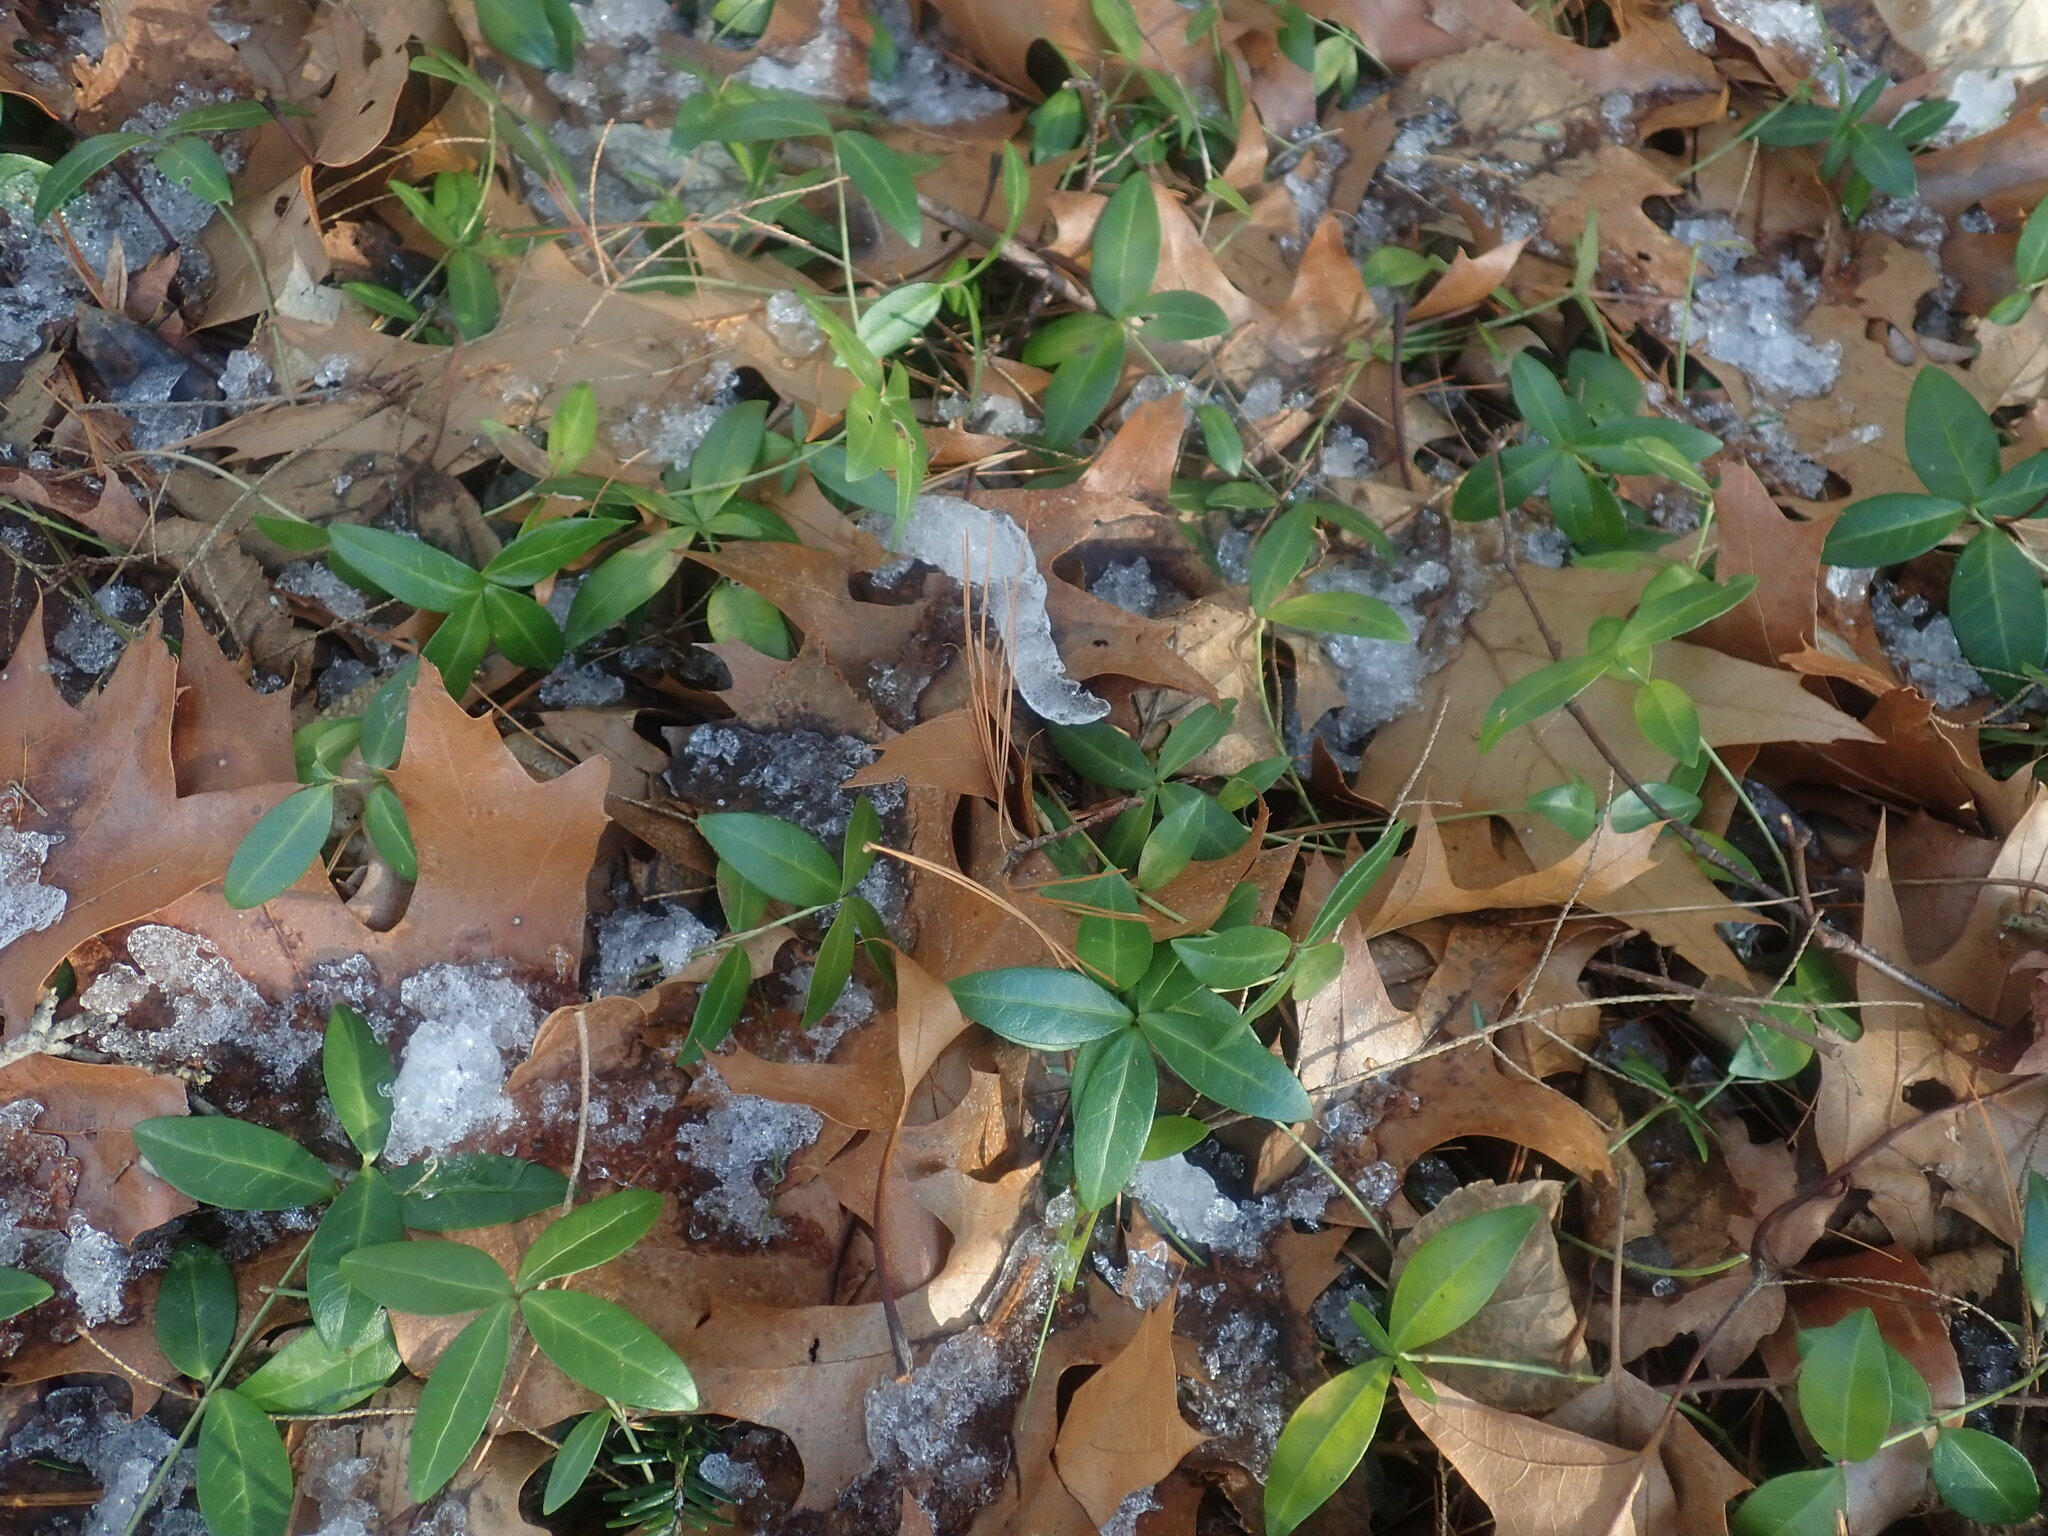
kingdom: Plantae
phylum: Tracheophyta
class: Magnoliopsida
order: Gentianales
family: Apocynaceae
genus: Vinca
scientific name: Vinca minor
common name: Lesser periwinkle
